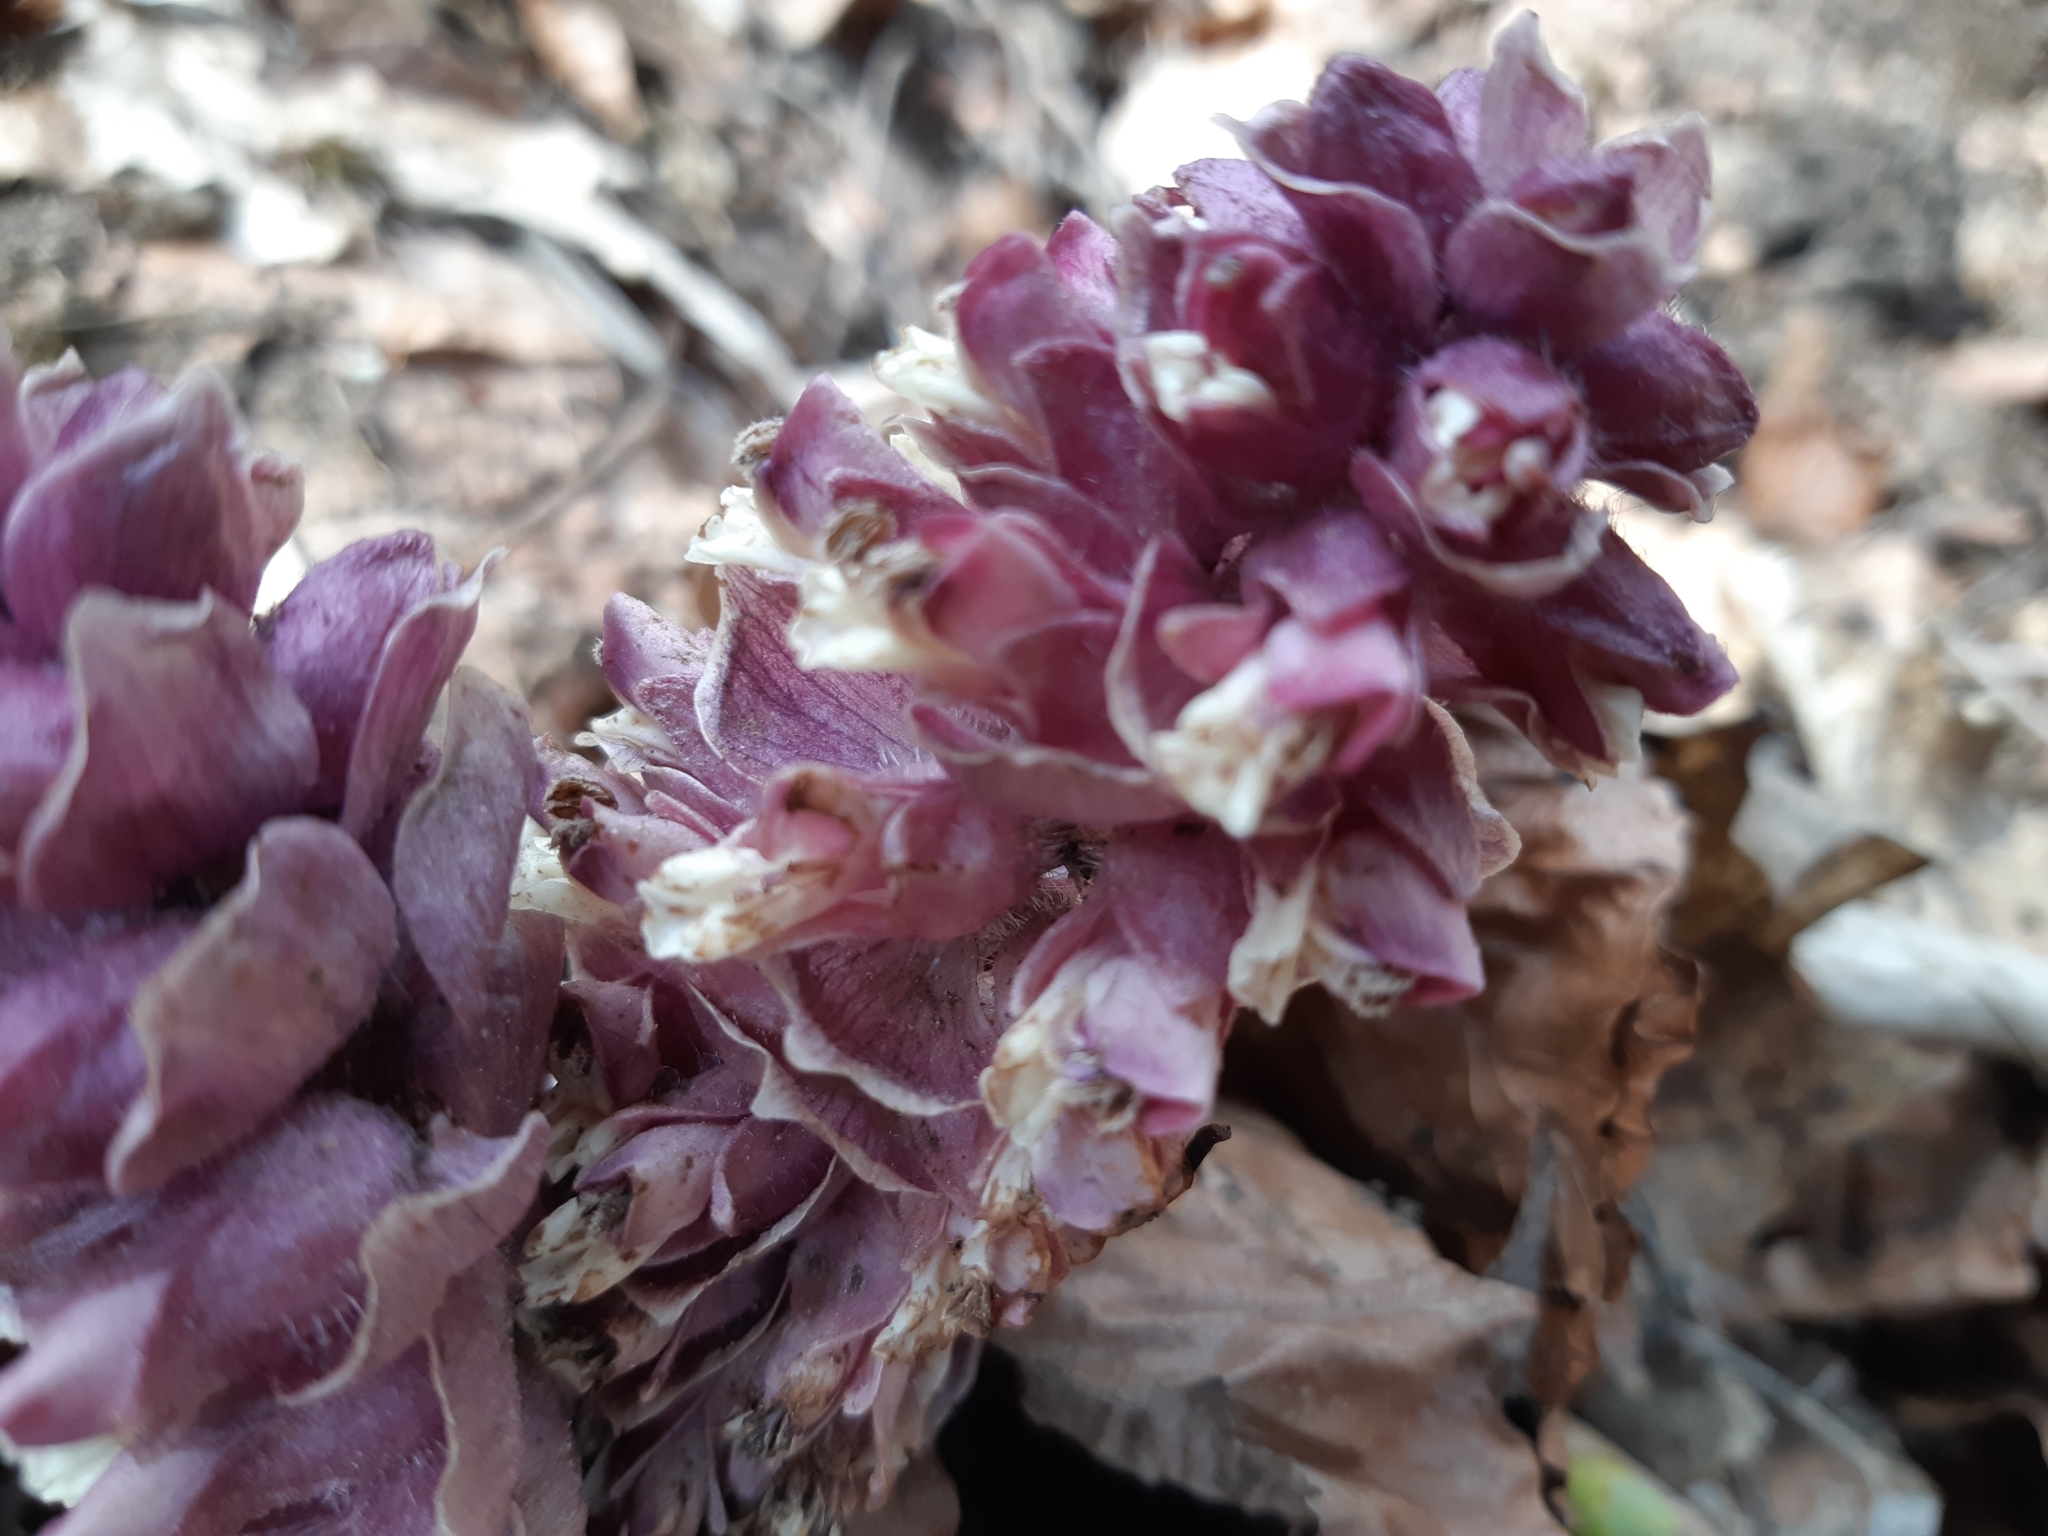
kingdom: Plantae
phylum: Tracheophyta
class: Magnoliopsida
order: Lamiales
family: Orobanchaceae
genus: Lathraea
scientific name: Lathraea squamaria
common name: Toothwort
